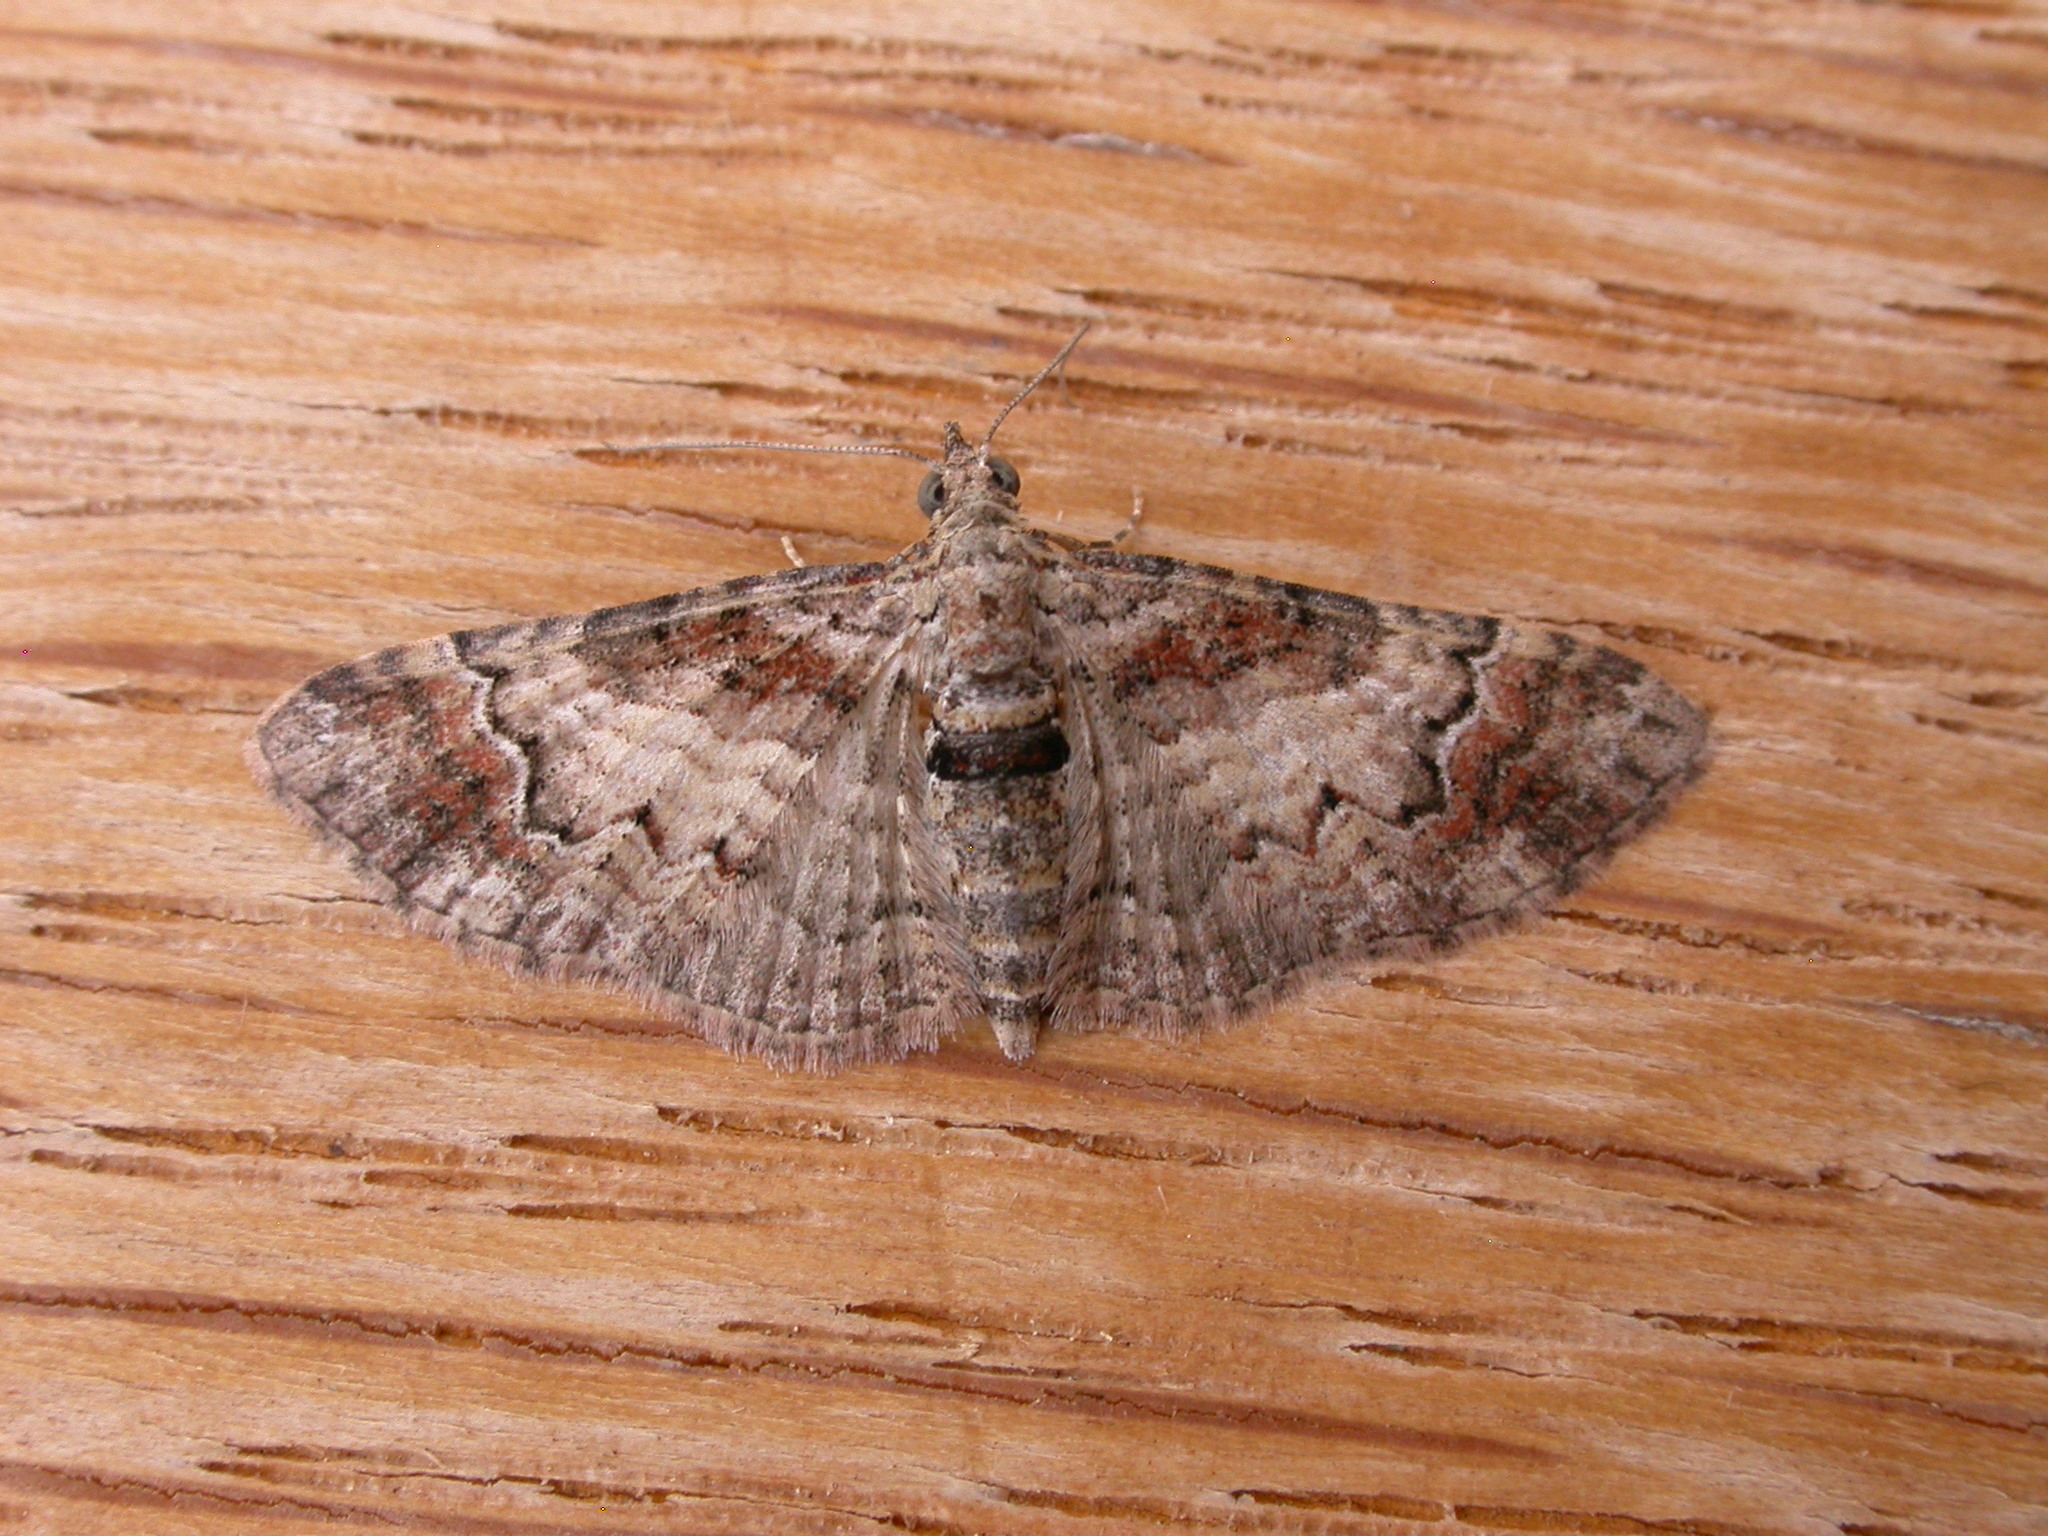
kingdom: Animalia
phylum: Arthropoda
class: Insecta
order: Lepidoptera
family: Geometridae
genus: Mnesiloba
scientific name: Mnesiloba eupitheciata
